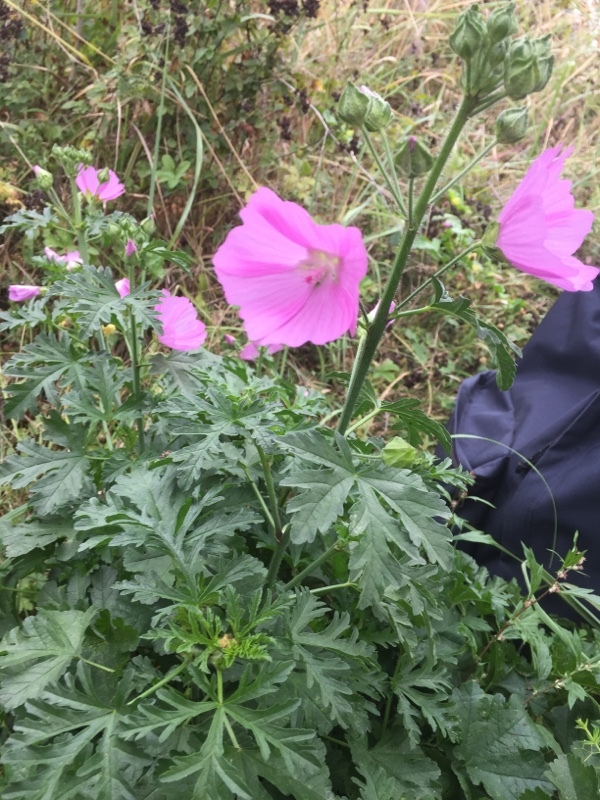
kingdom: Plantae
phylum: Tracheophyta
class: Magnoliopsida
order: Malvales
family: Malvaceae
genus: Malva
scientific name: Malva alcea
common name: Greater musk-mallow
